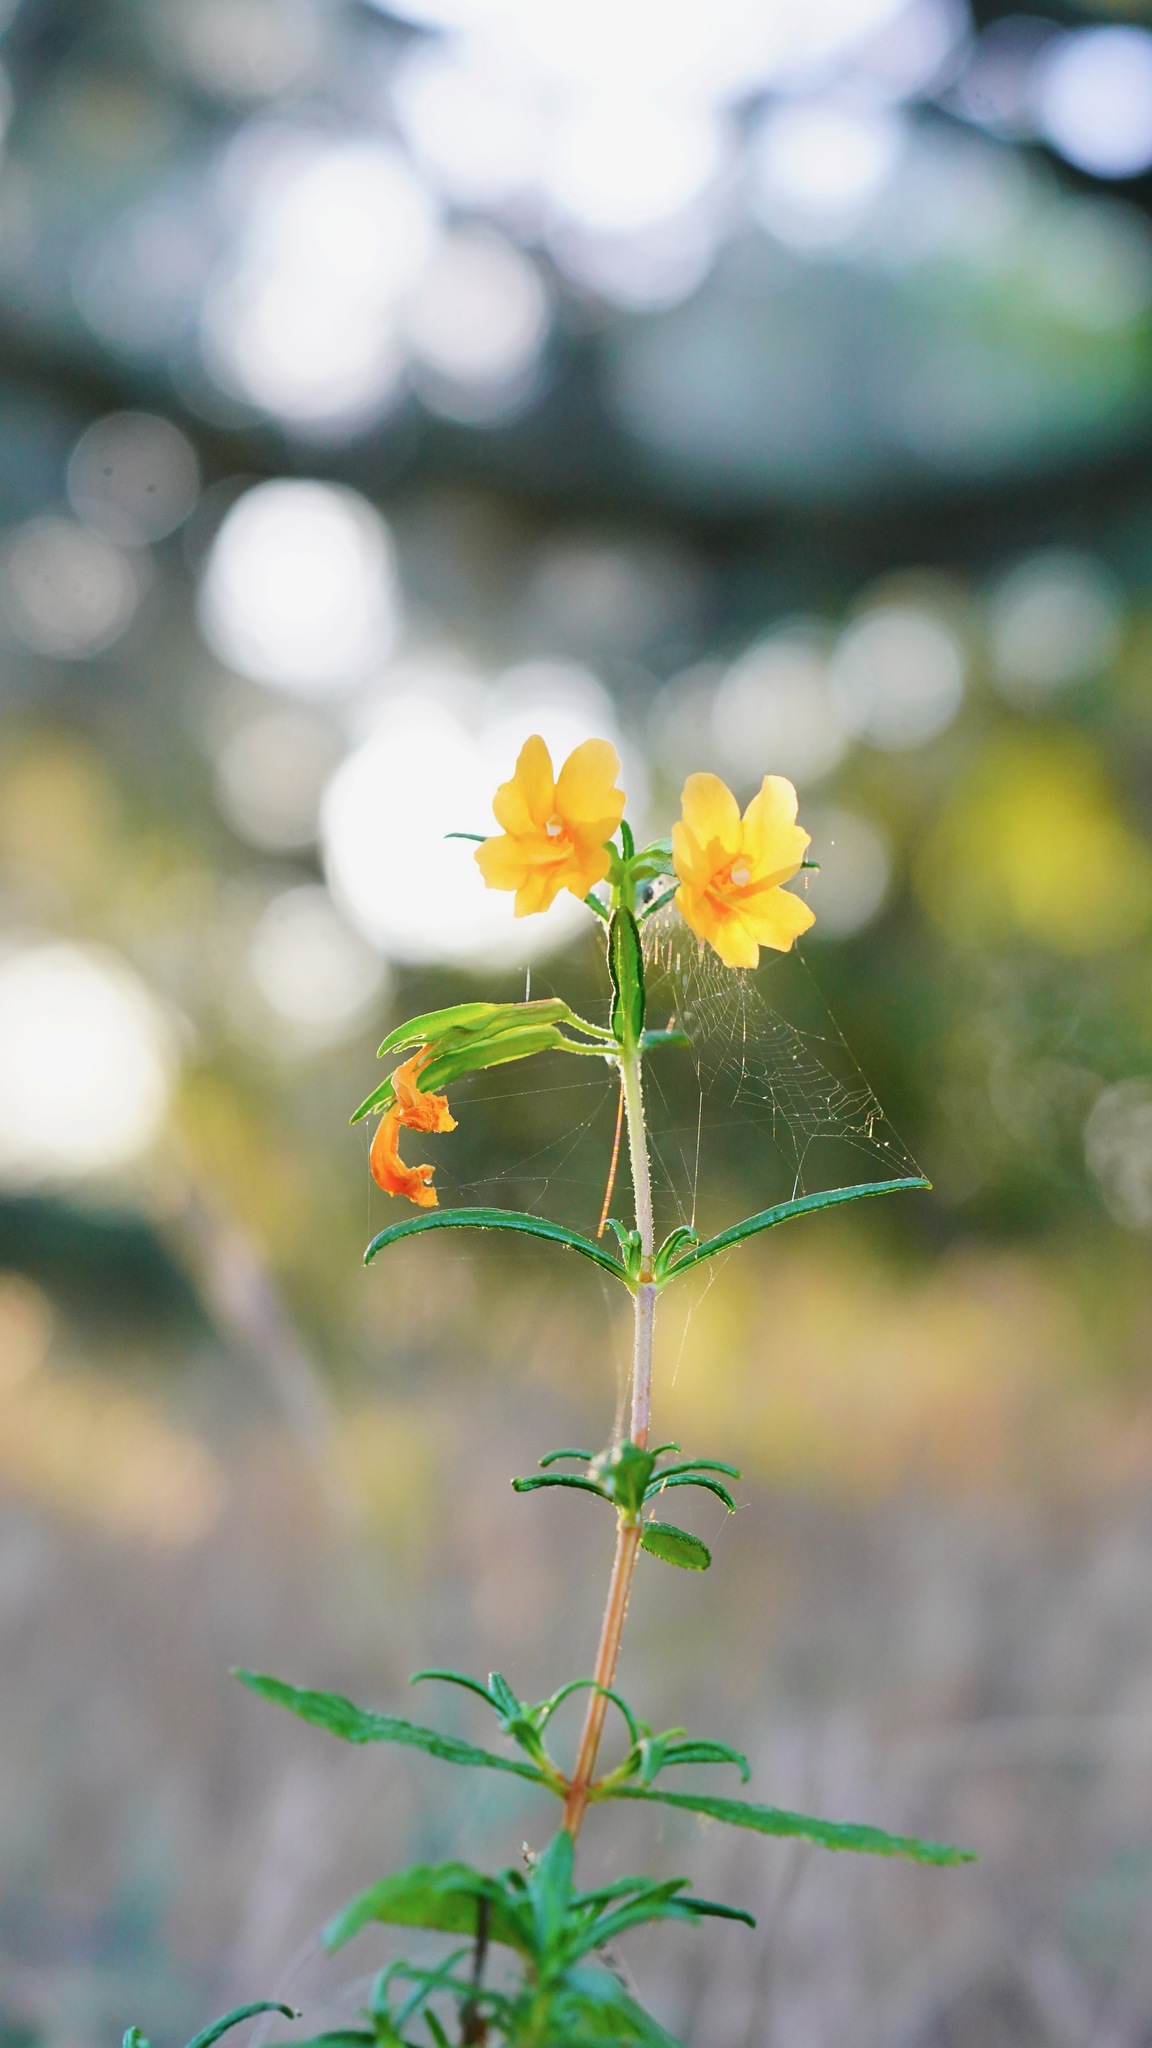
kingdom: Plantae
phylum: Tracheophyta
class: Magnoliopsida
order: Lamiales
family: Phrymaceae
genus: Diplacus
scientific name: Diplacus aurantiacus
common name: Bush monkey-flower
